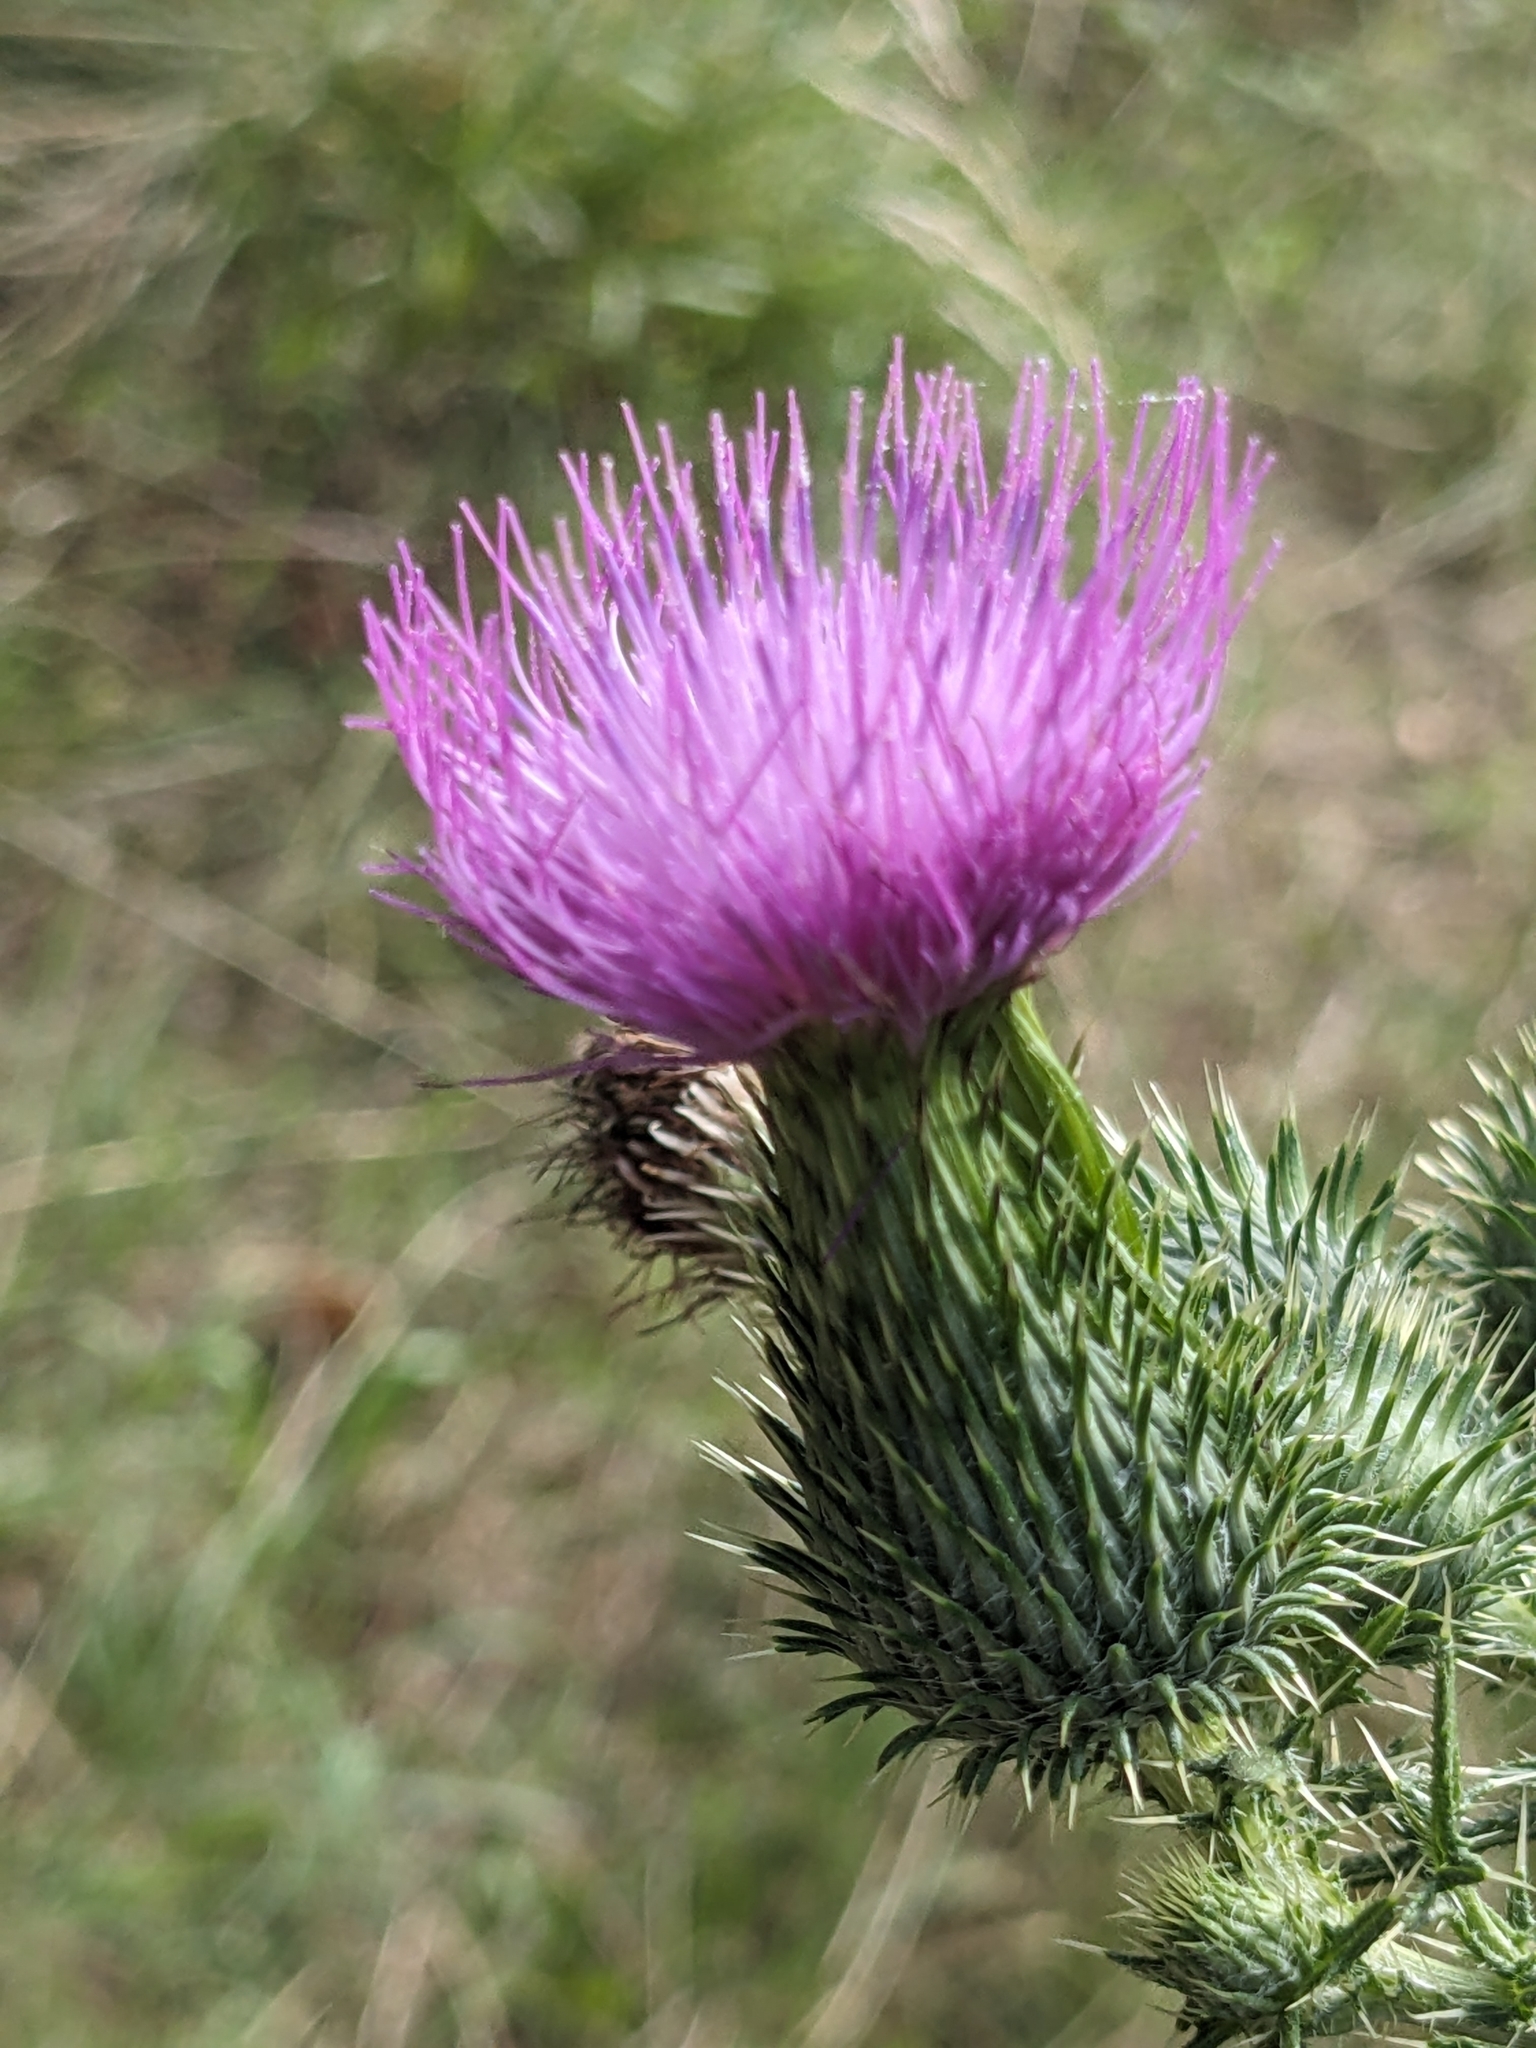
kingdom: Plantae
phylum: Tracheophyta
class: Magnoliopsida
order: Asterales
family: Asteraceae
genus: Cirsium
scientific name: Cirsium vulgare
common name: Bull thistle
